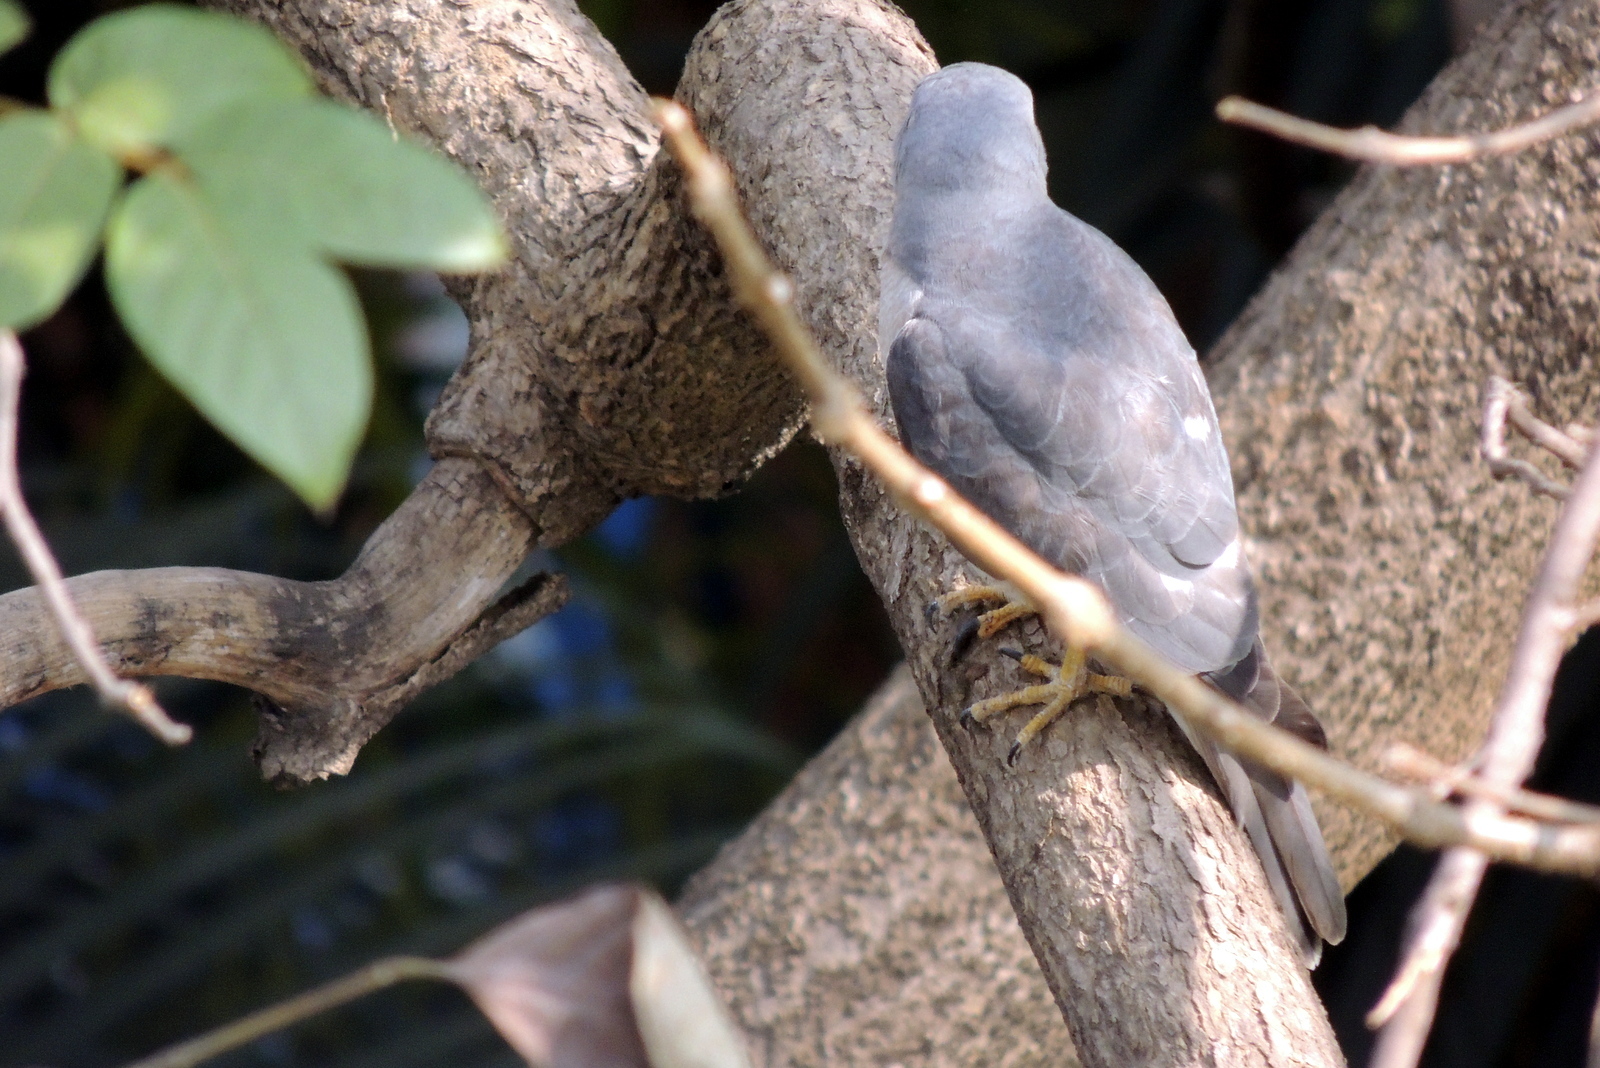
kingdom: Animalia
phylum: Chordata
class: Aves
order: Accipitriformes
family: Accipitridae
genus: Accipiter
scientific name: Accipiter badius
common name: Shikra
